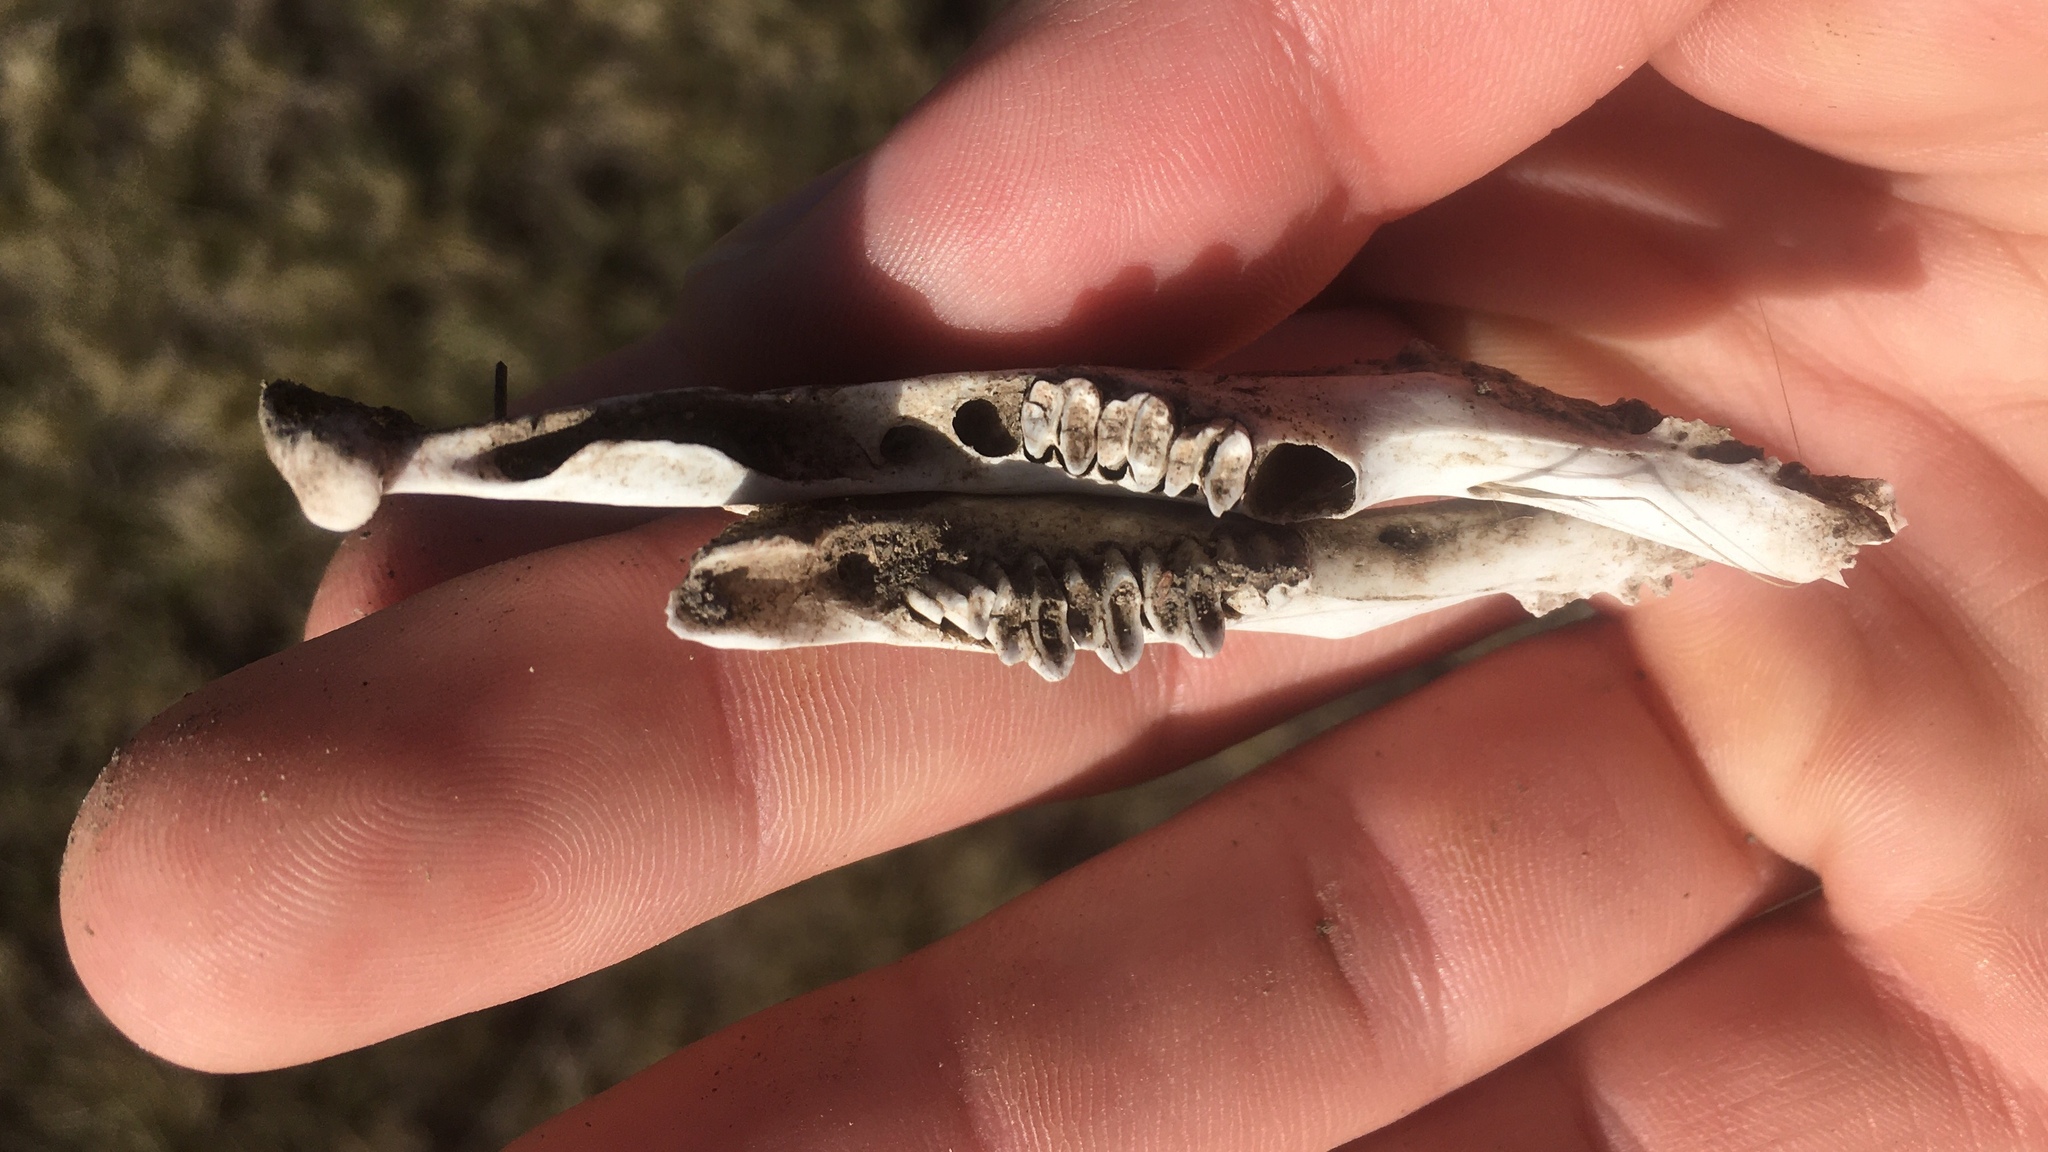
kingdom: Animalia
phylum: Chordata
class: Mammalia
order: Lagomorpha
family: Leporidae
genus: Lepus
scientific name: Lepus europaeus
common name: European hare
